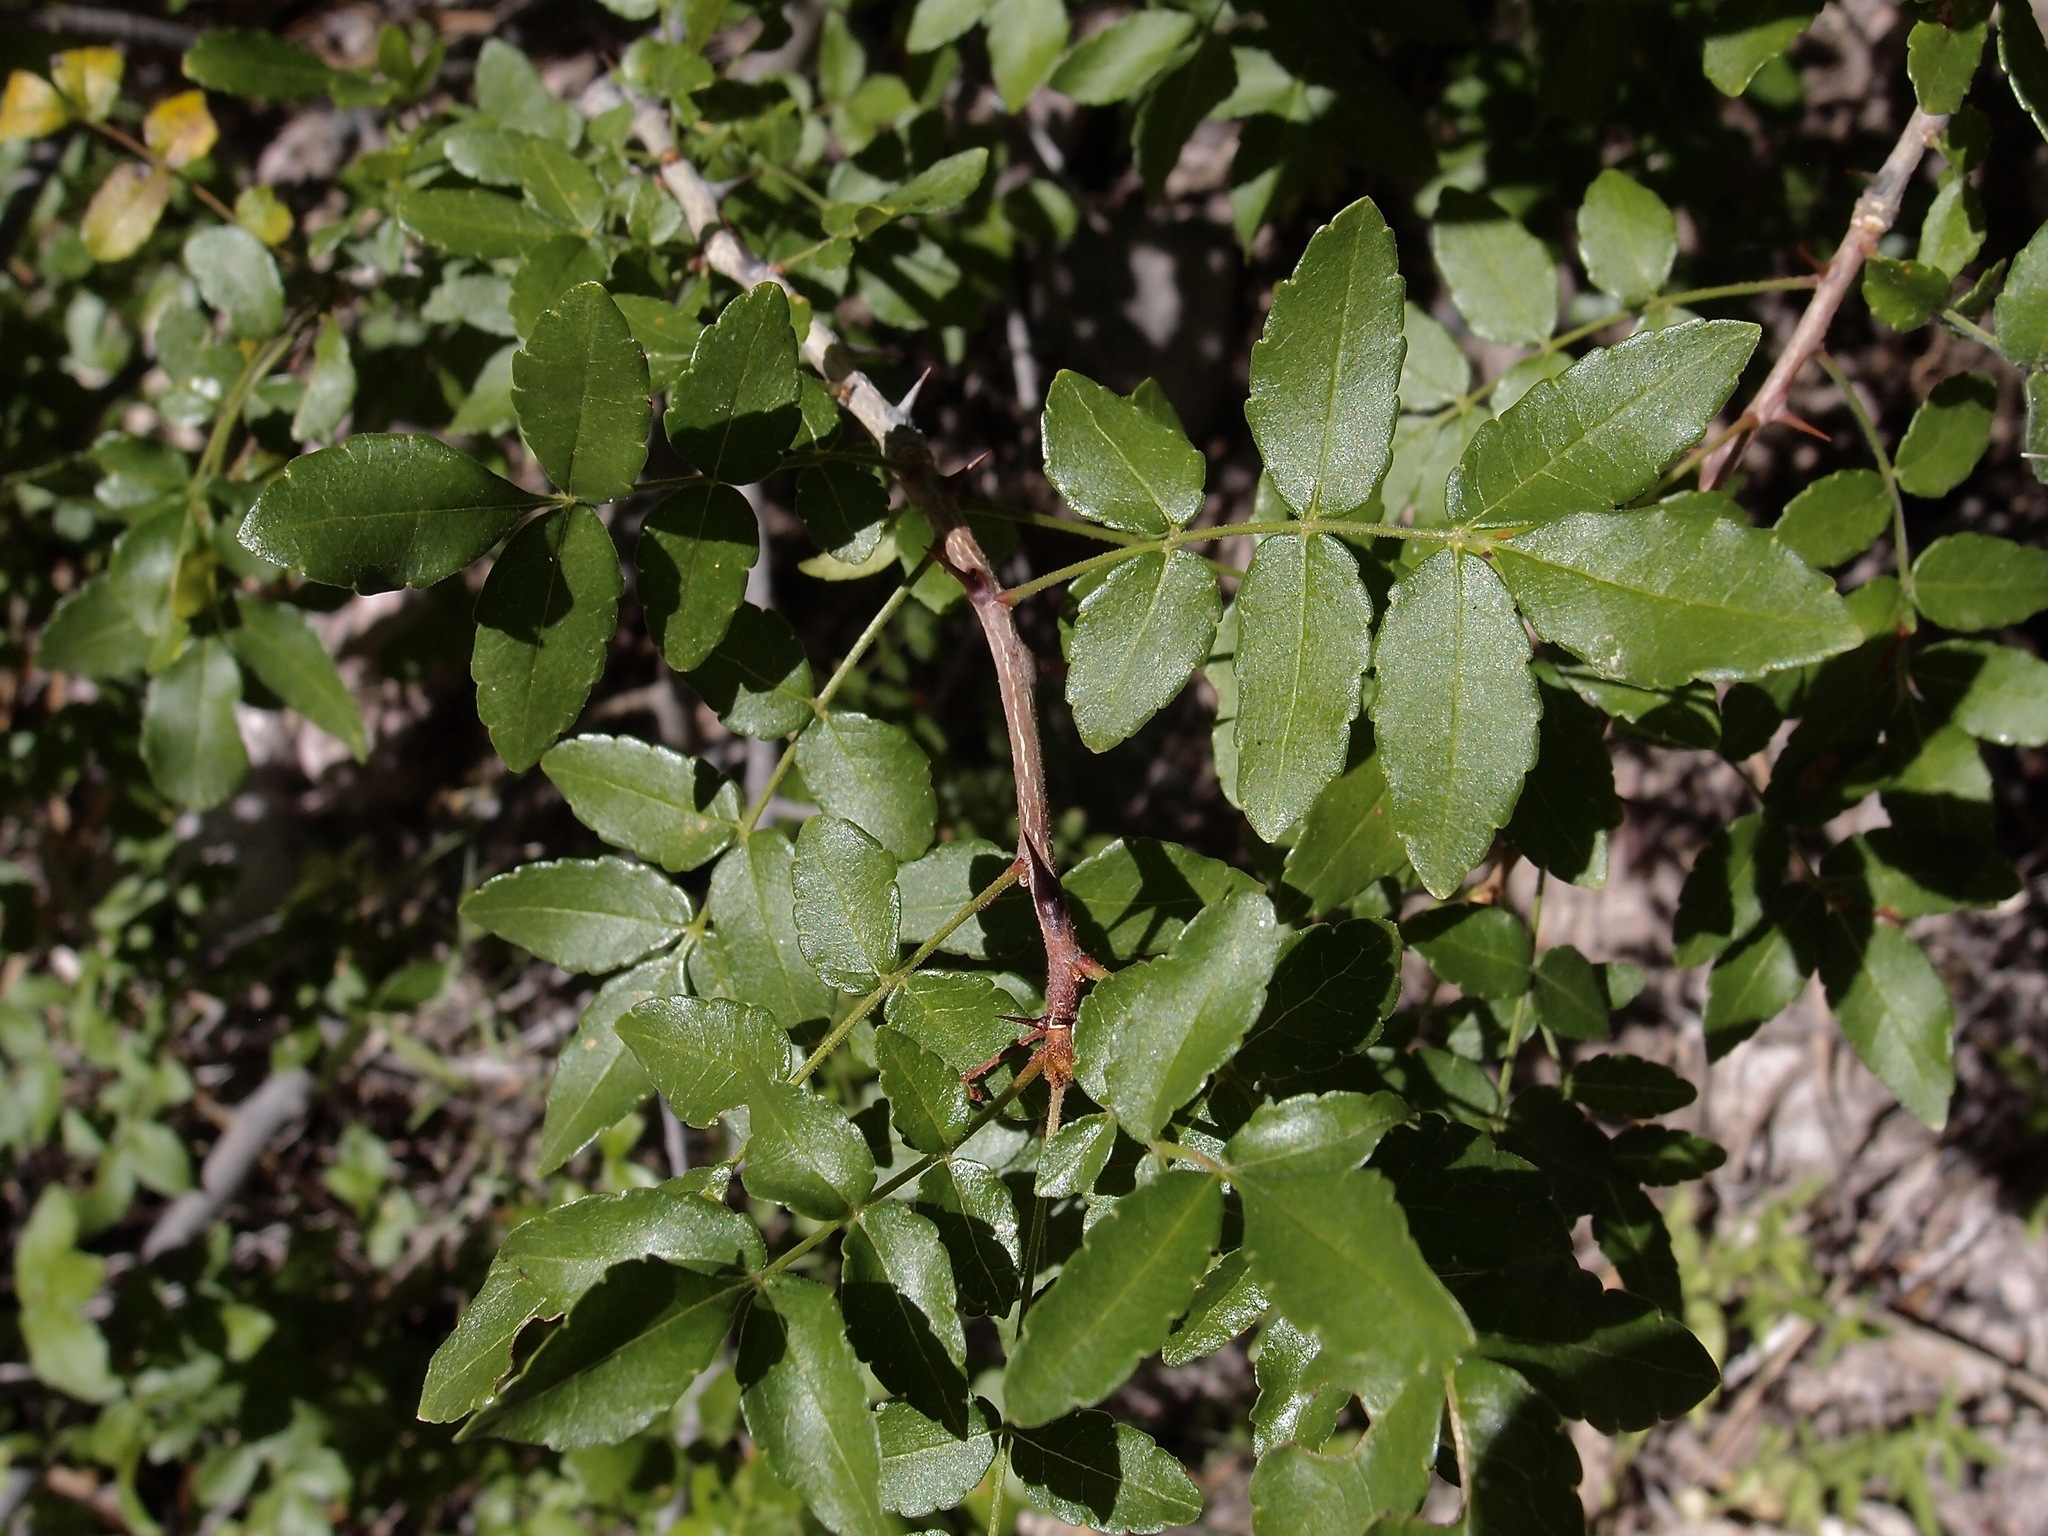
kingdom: Plantae
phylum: Tracheophyta
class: Magnoliopsida
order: Sapindales
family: Rutaceae
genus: Zanthoxylum
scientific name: Zanthoxylum ciliatum
